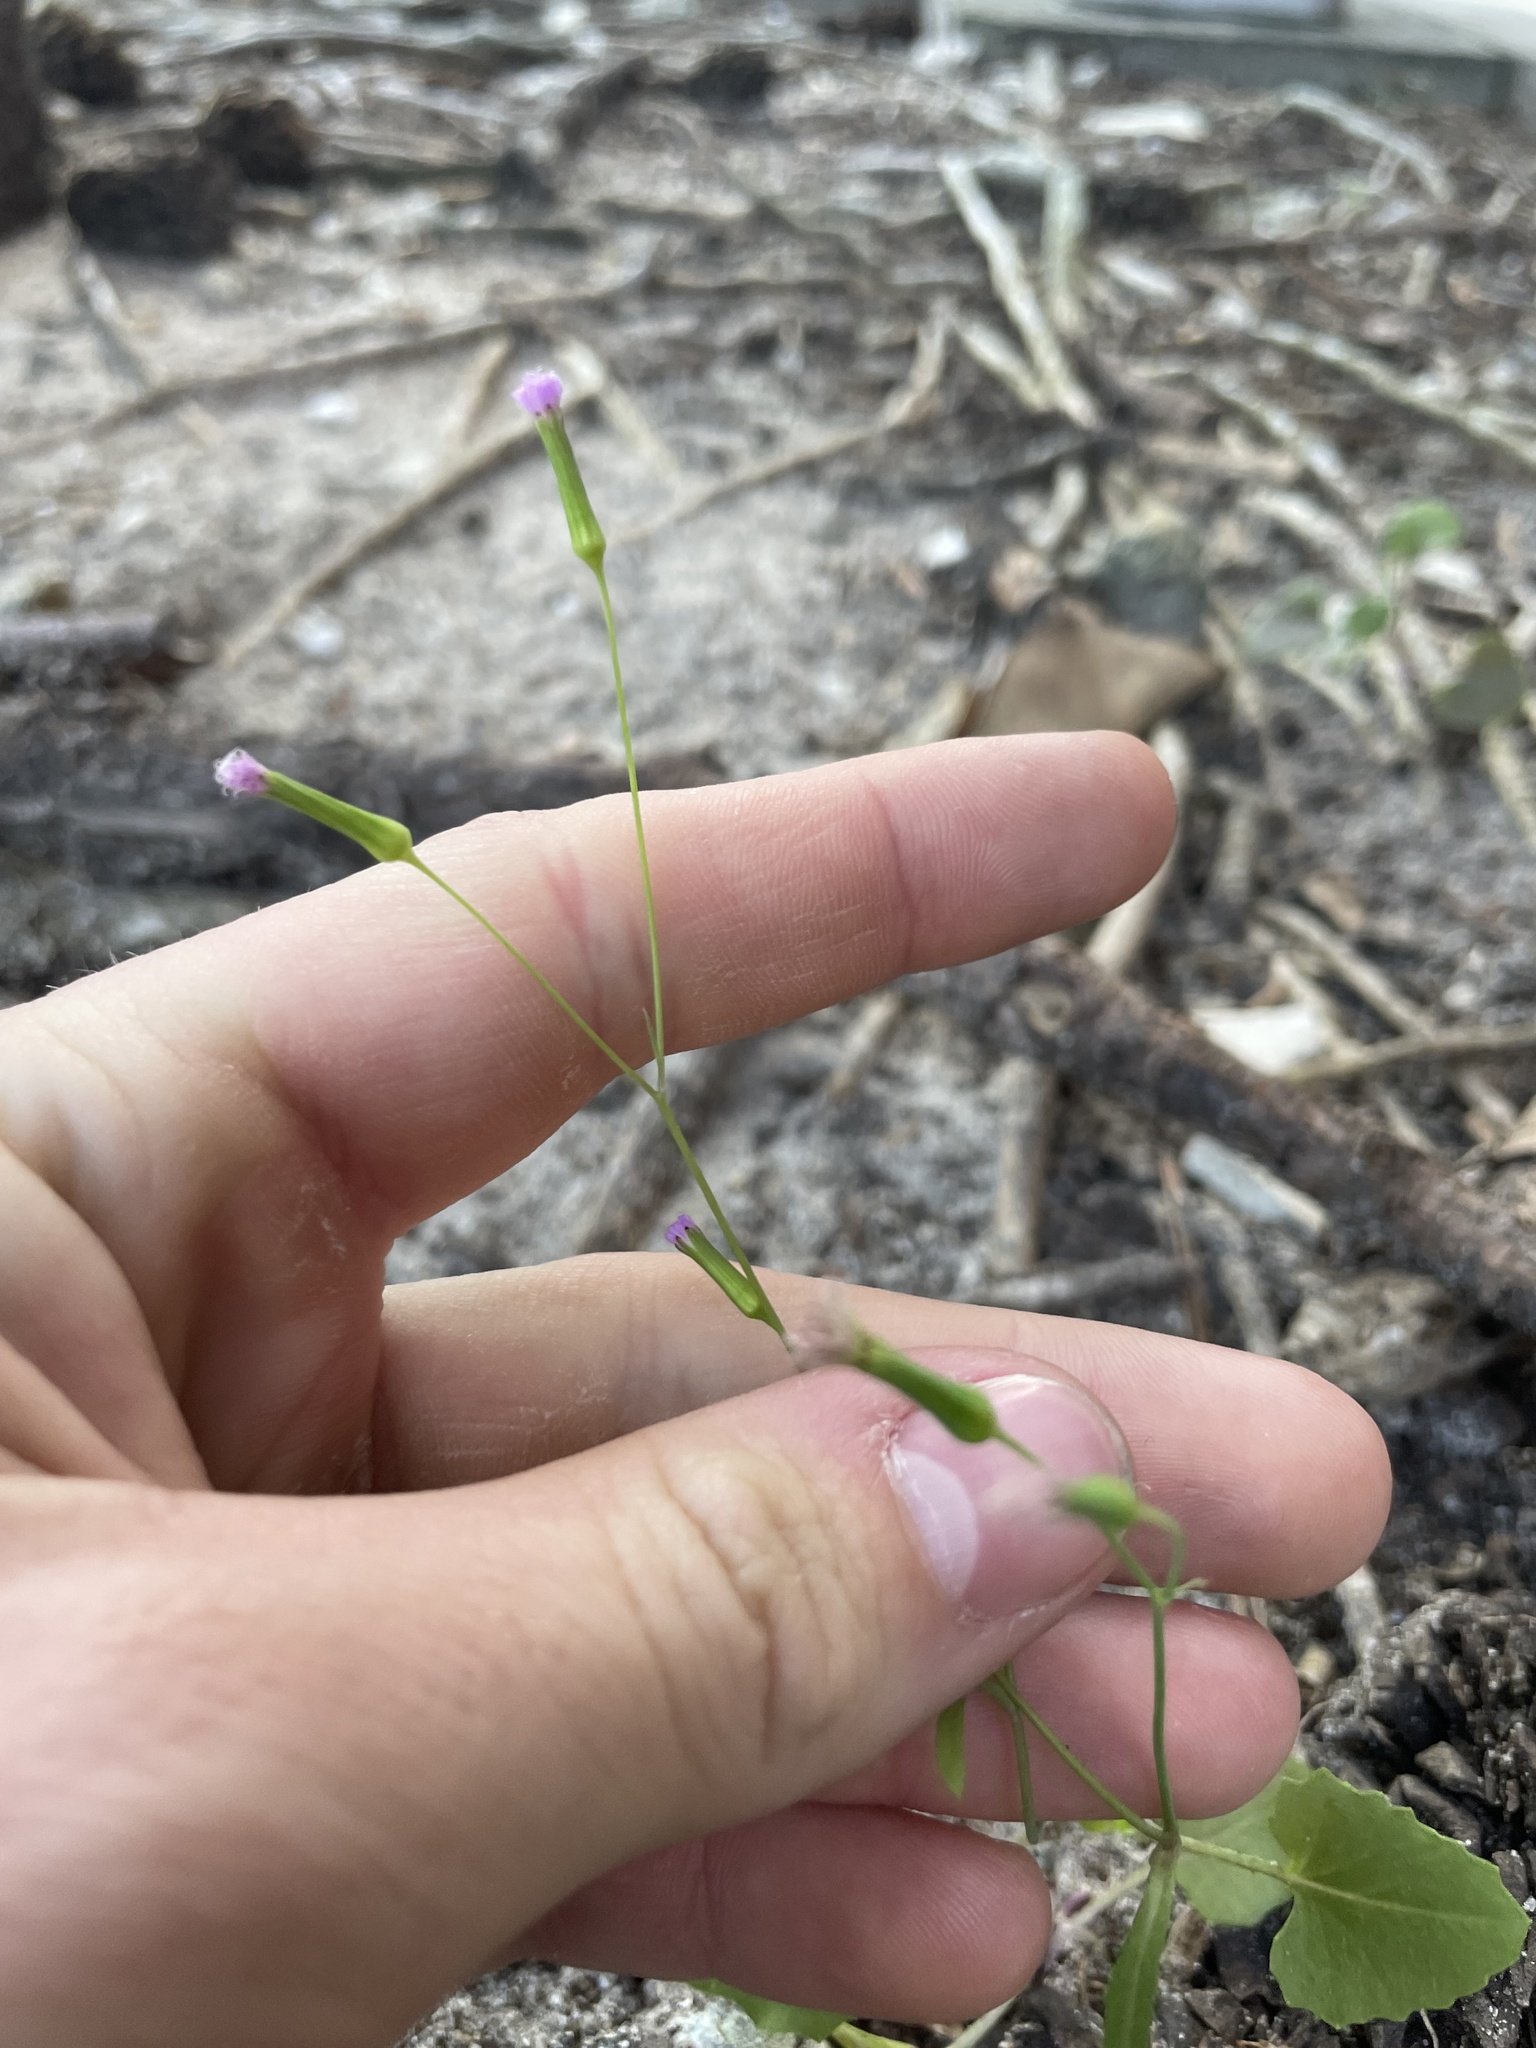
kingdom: Plantae
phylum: Tracheophyta
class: Magnoliopsida
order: Asterales
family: Asteraceae
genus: Emilia
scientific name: Emilia sonchifolia
